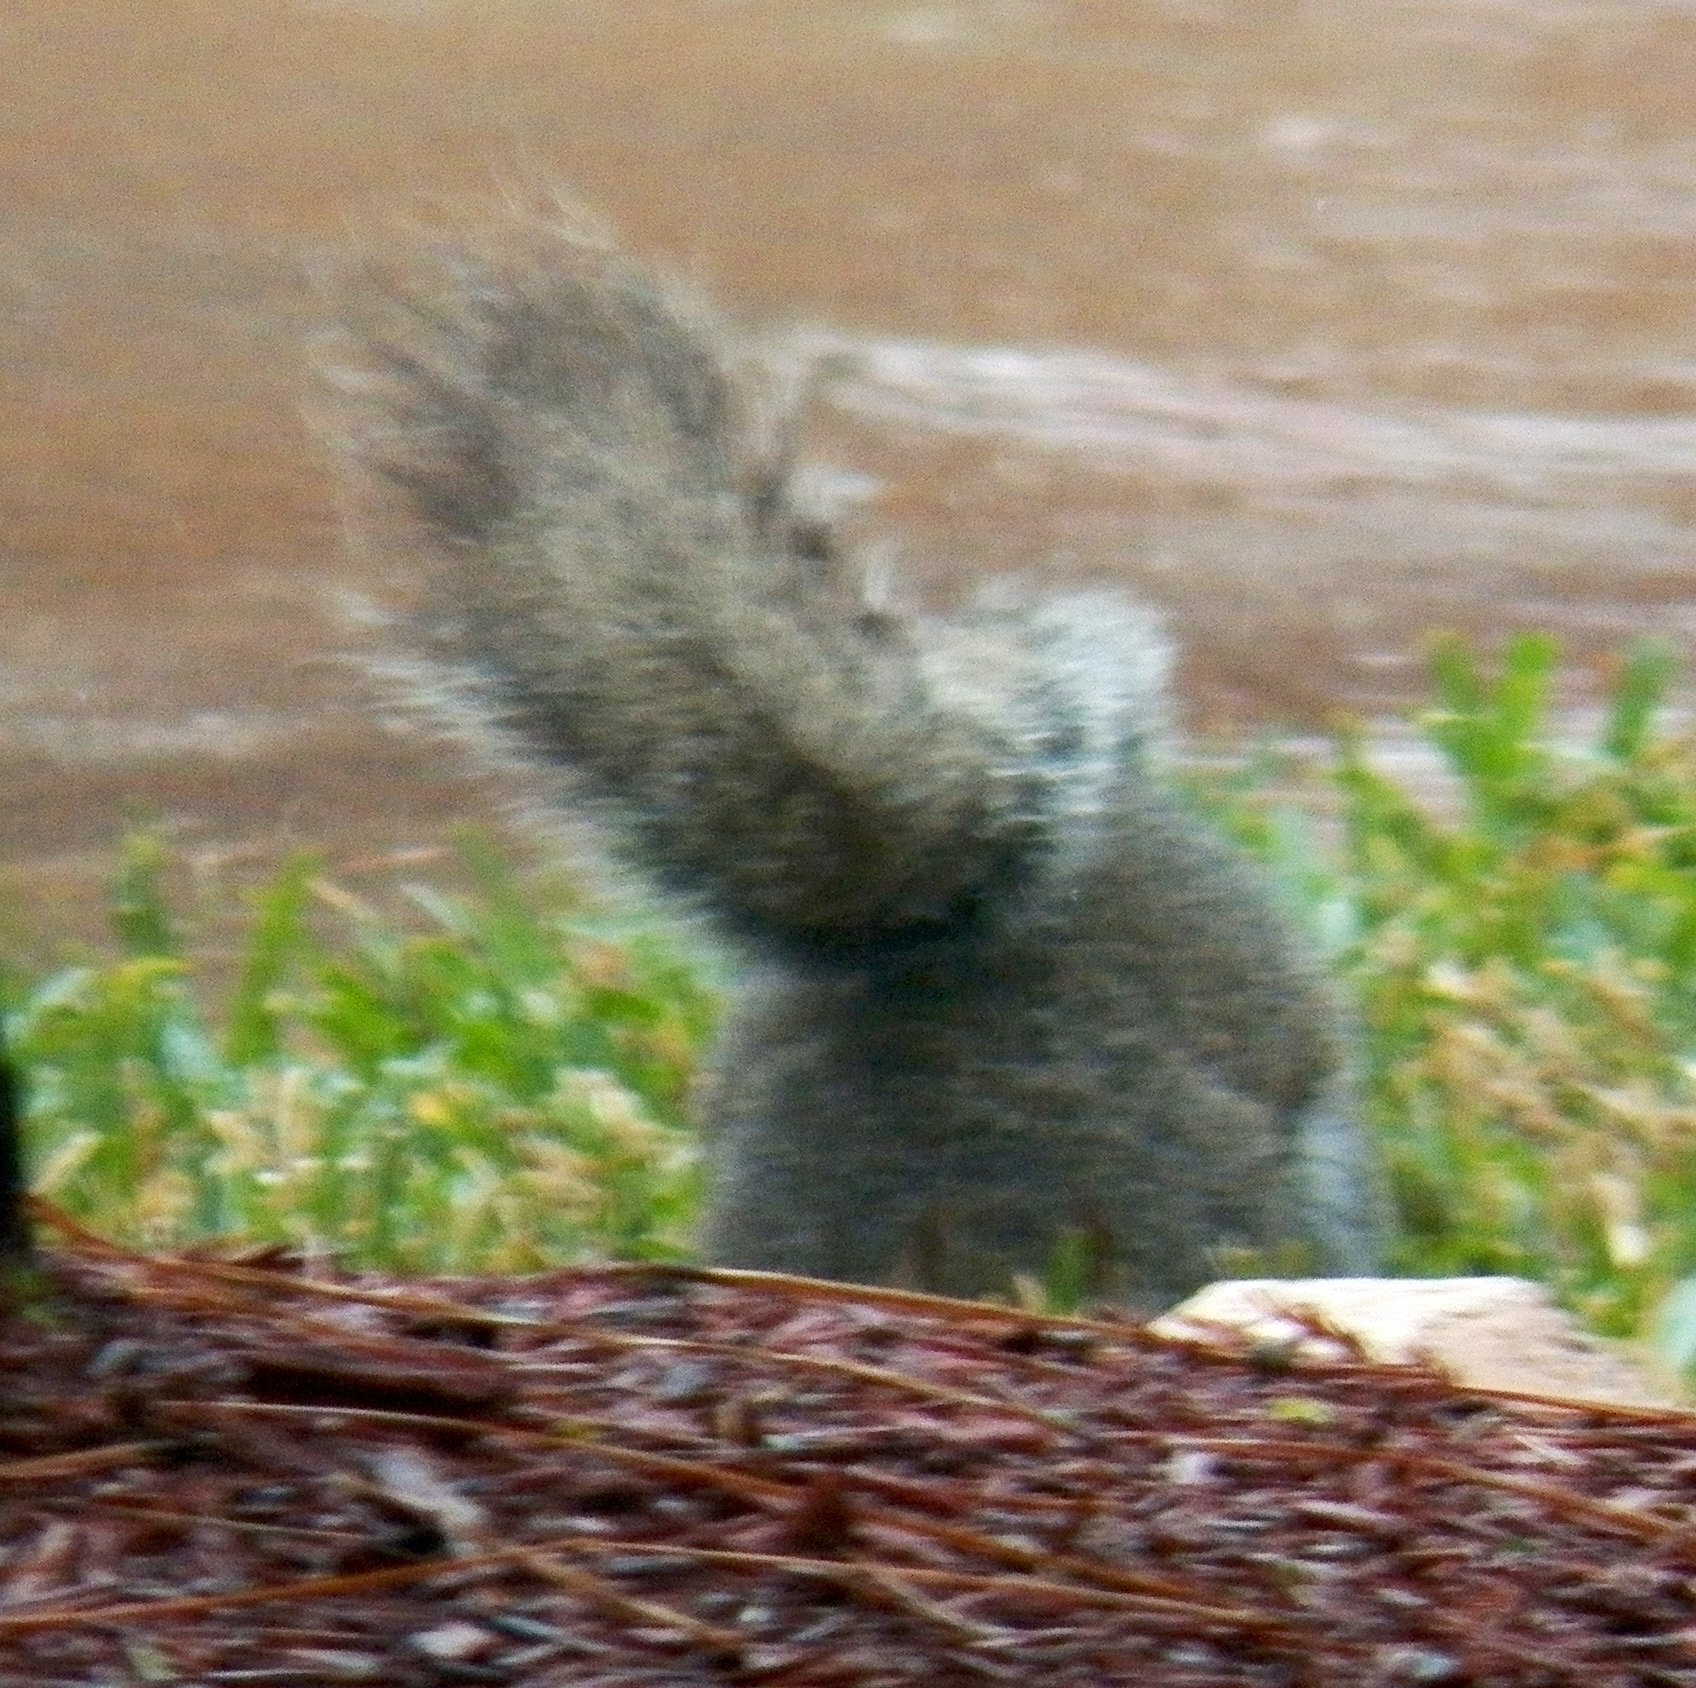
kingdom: Animalia
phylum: Chordata
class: Mammalia
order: Rodentia
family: Sciuridae
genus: Sciurus
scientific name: Sciurus carolinensis
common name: Eastern gray squirrel
